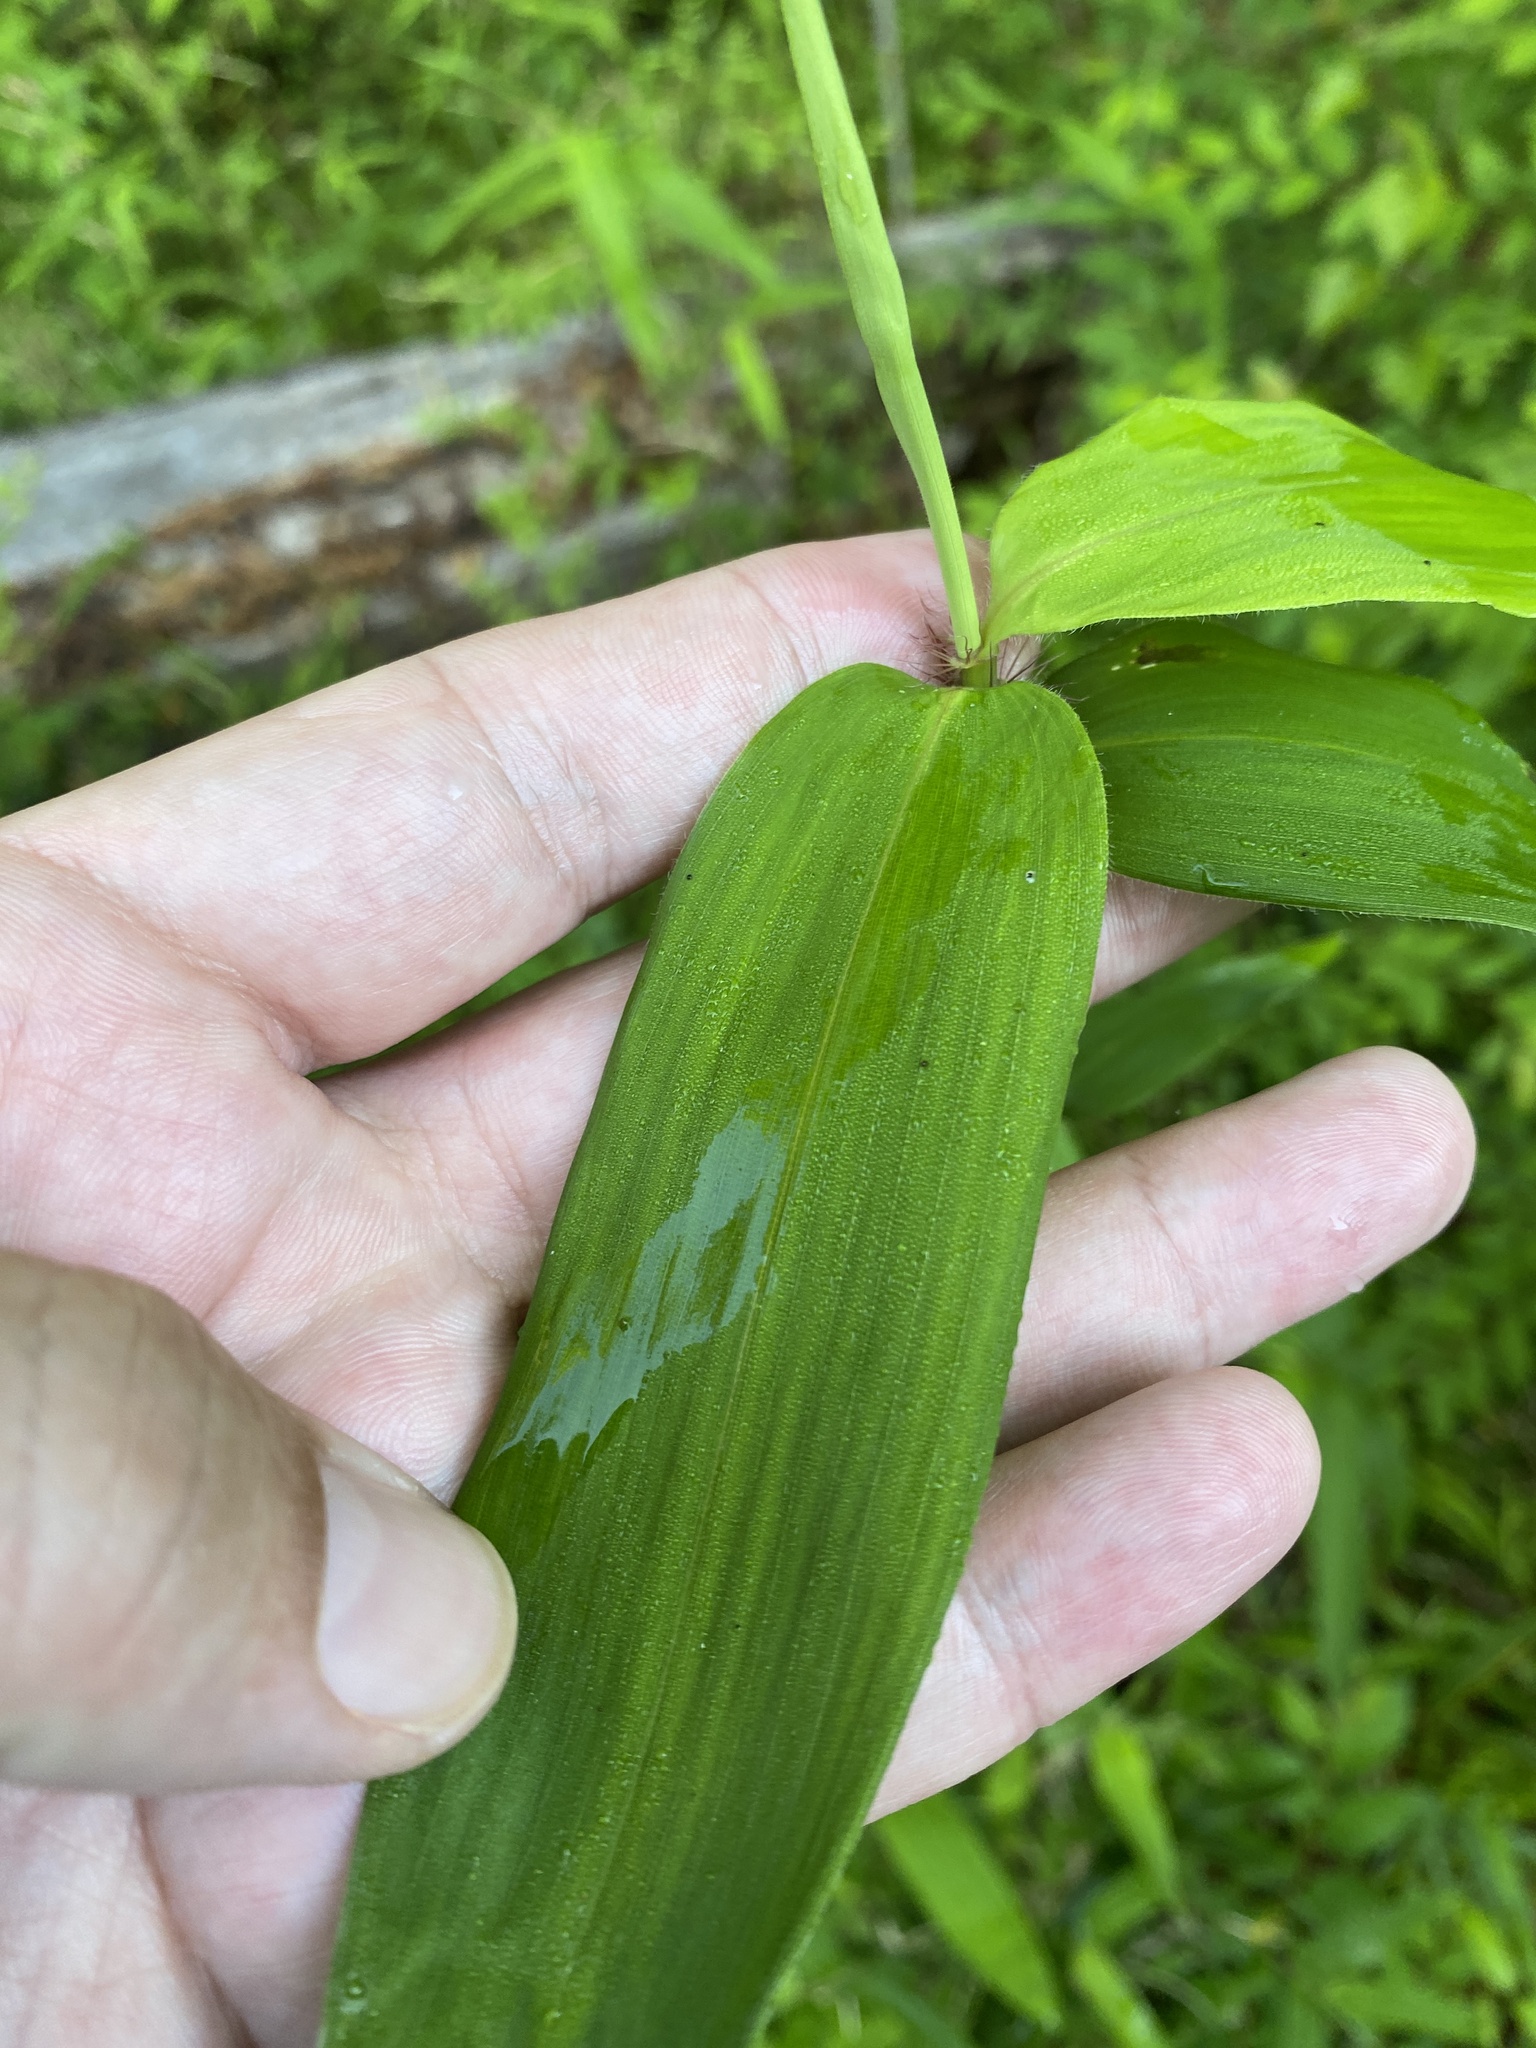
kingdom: Plantae
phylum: Tracheophyta
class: Liliopsida
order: Poales
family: Poaceae
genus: Arundinaria
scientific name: Arundinaria gigantea
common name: Giant cane
